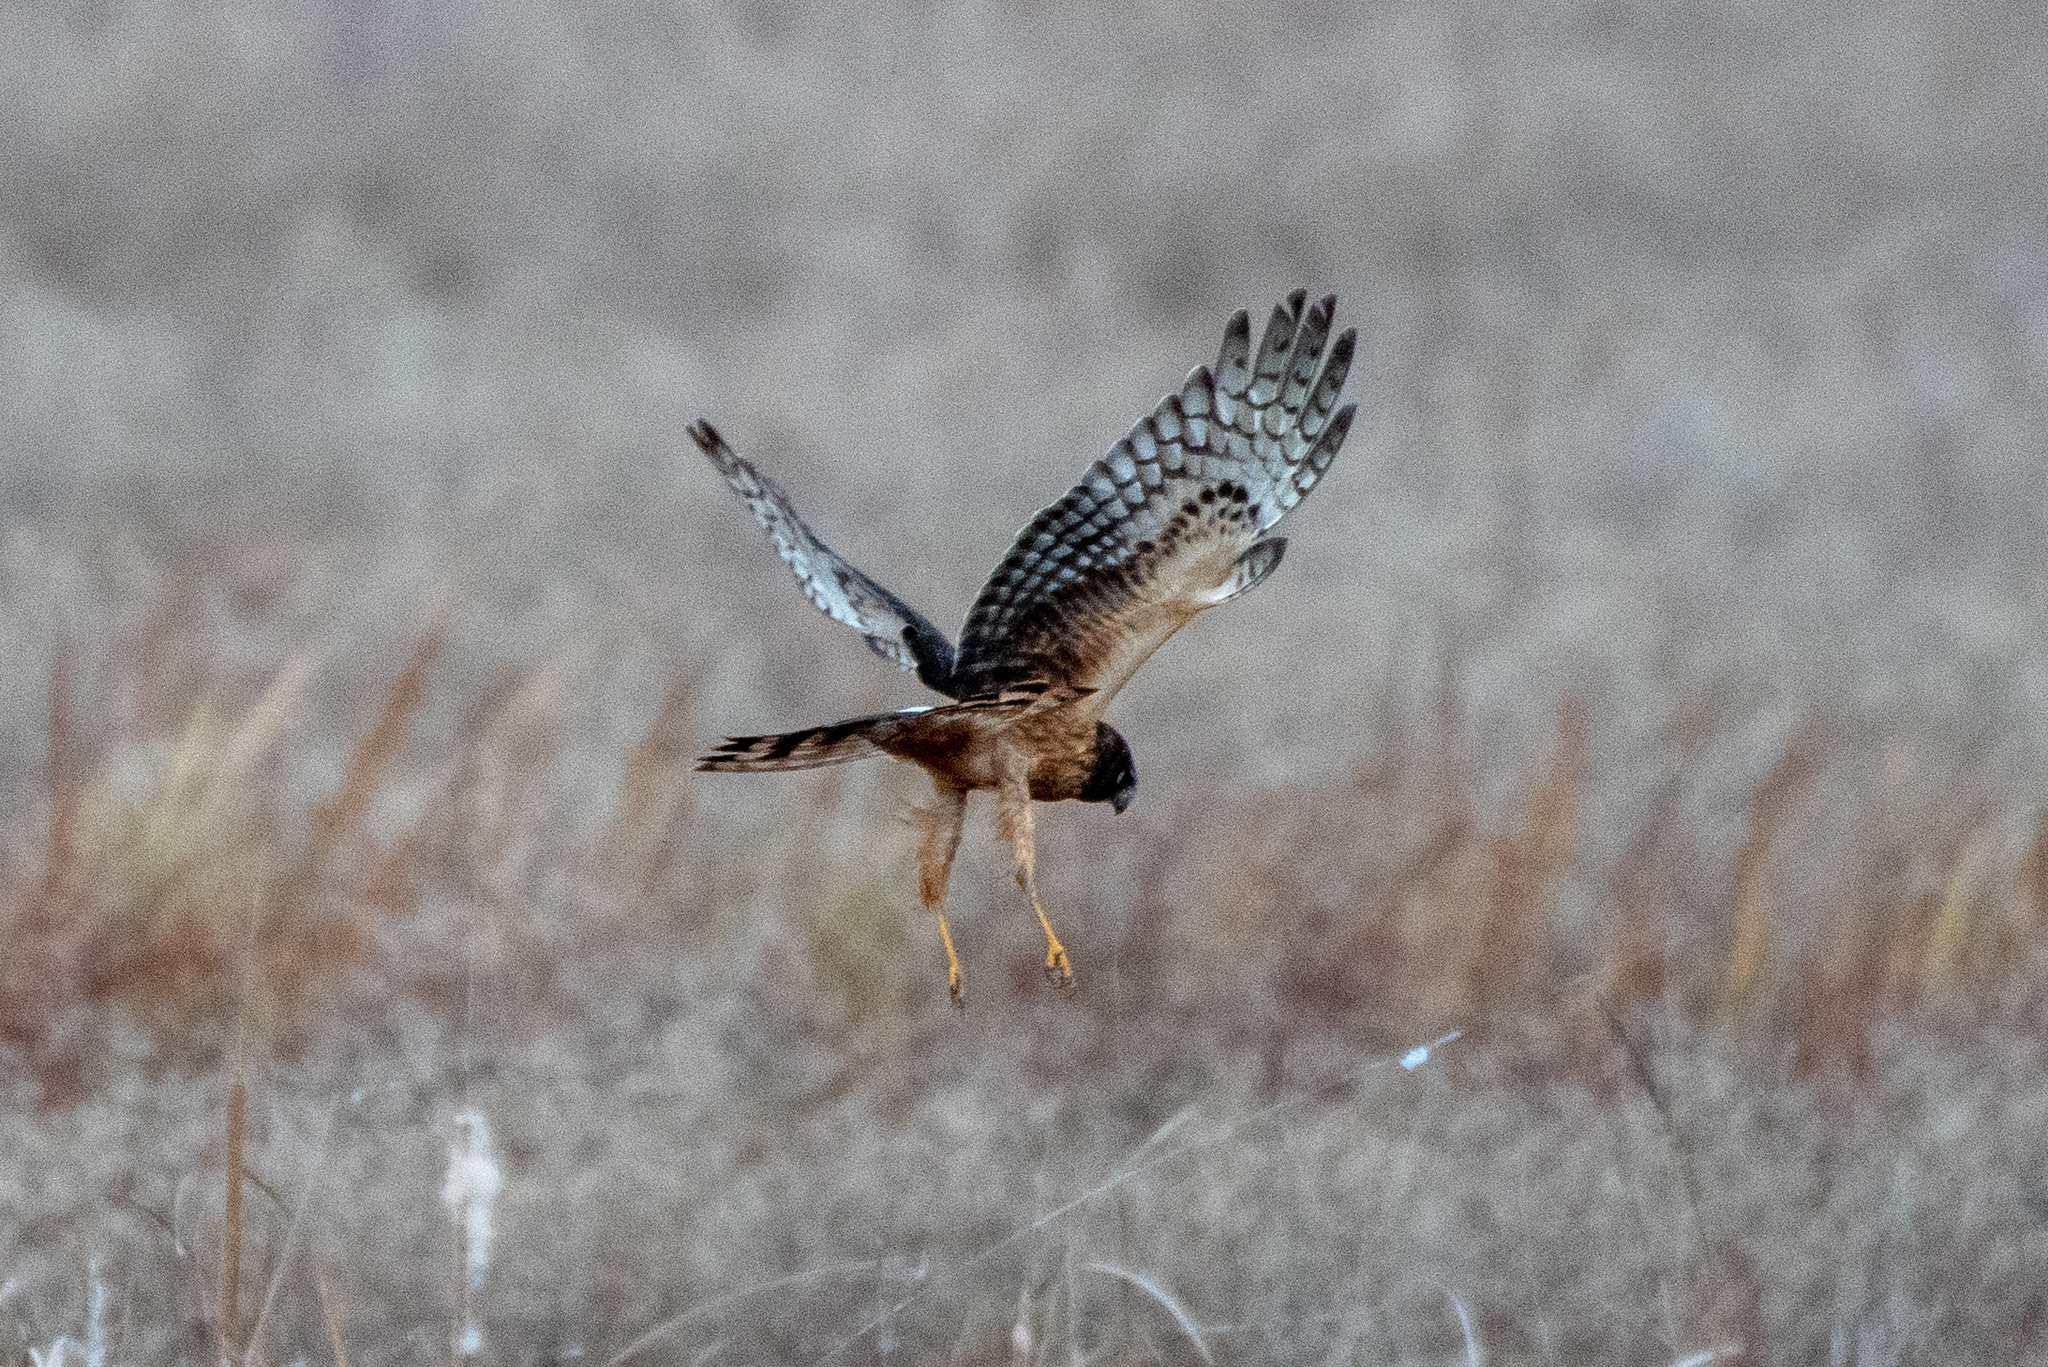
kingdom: Animalia
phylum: Chordata
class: Aves
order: Accipitriformes
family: Accipitridae
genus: Circus
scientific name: Circus cyaneus
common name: Hen harrier
